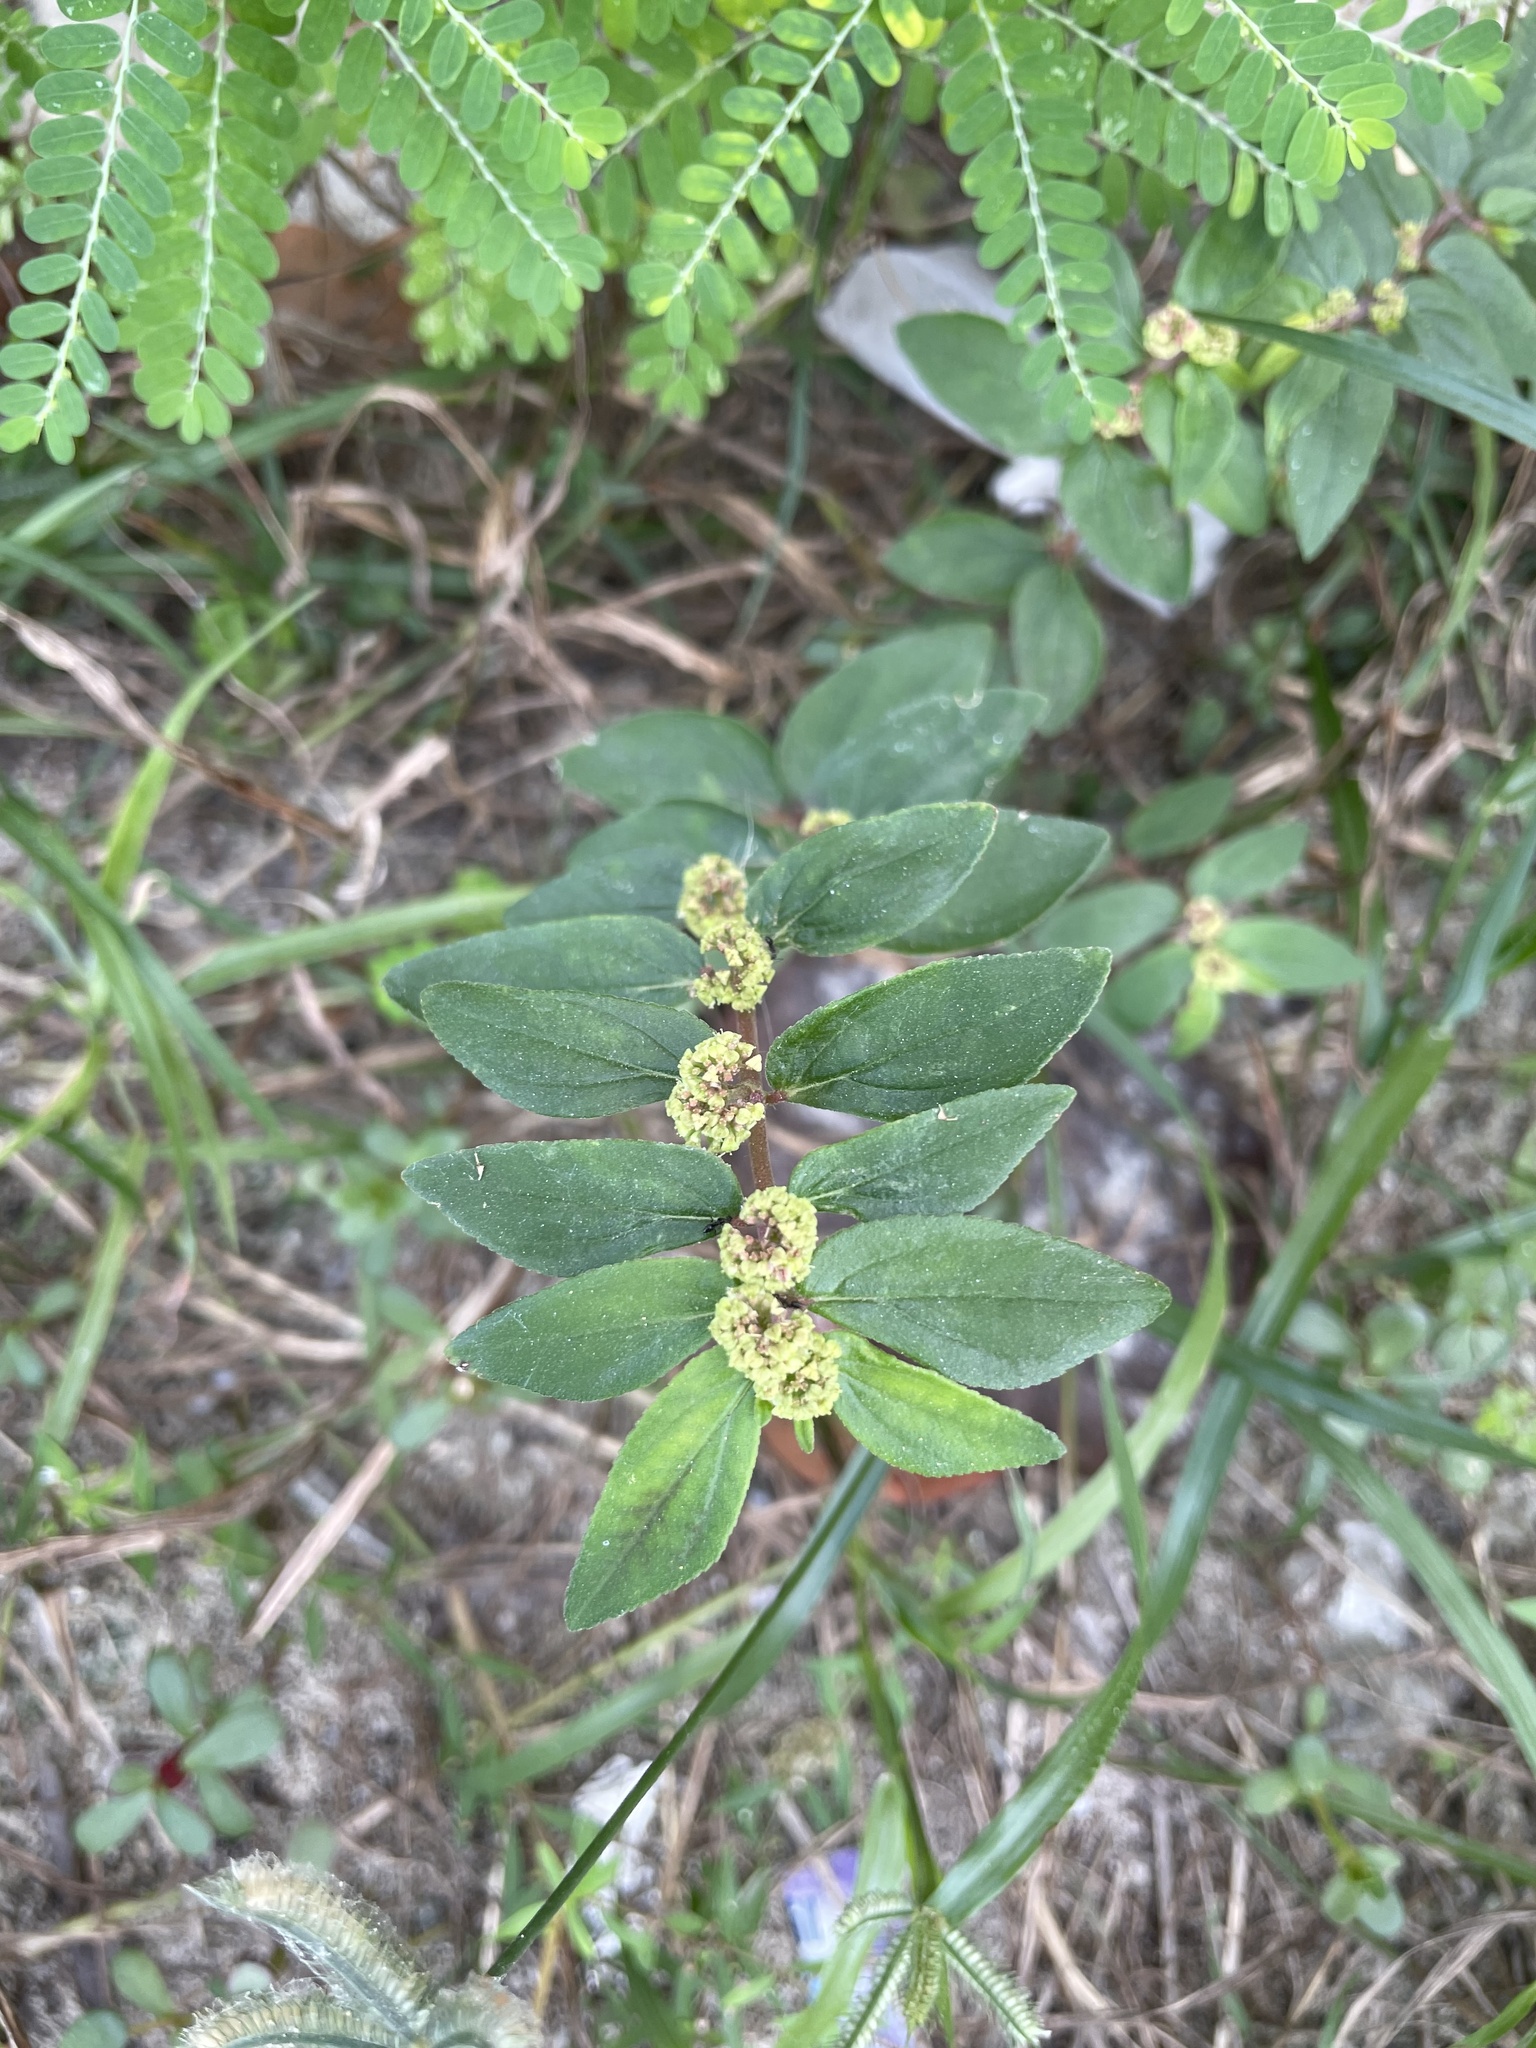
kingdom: Plantae
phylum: Tracheophyta
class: Magnoliopsida
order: Malpighiales
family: Euphorbiaceae
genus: Euphorbia
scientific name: Euphorbia hirta
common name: Pillpod sandmat
